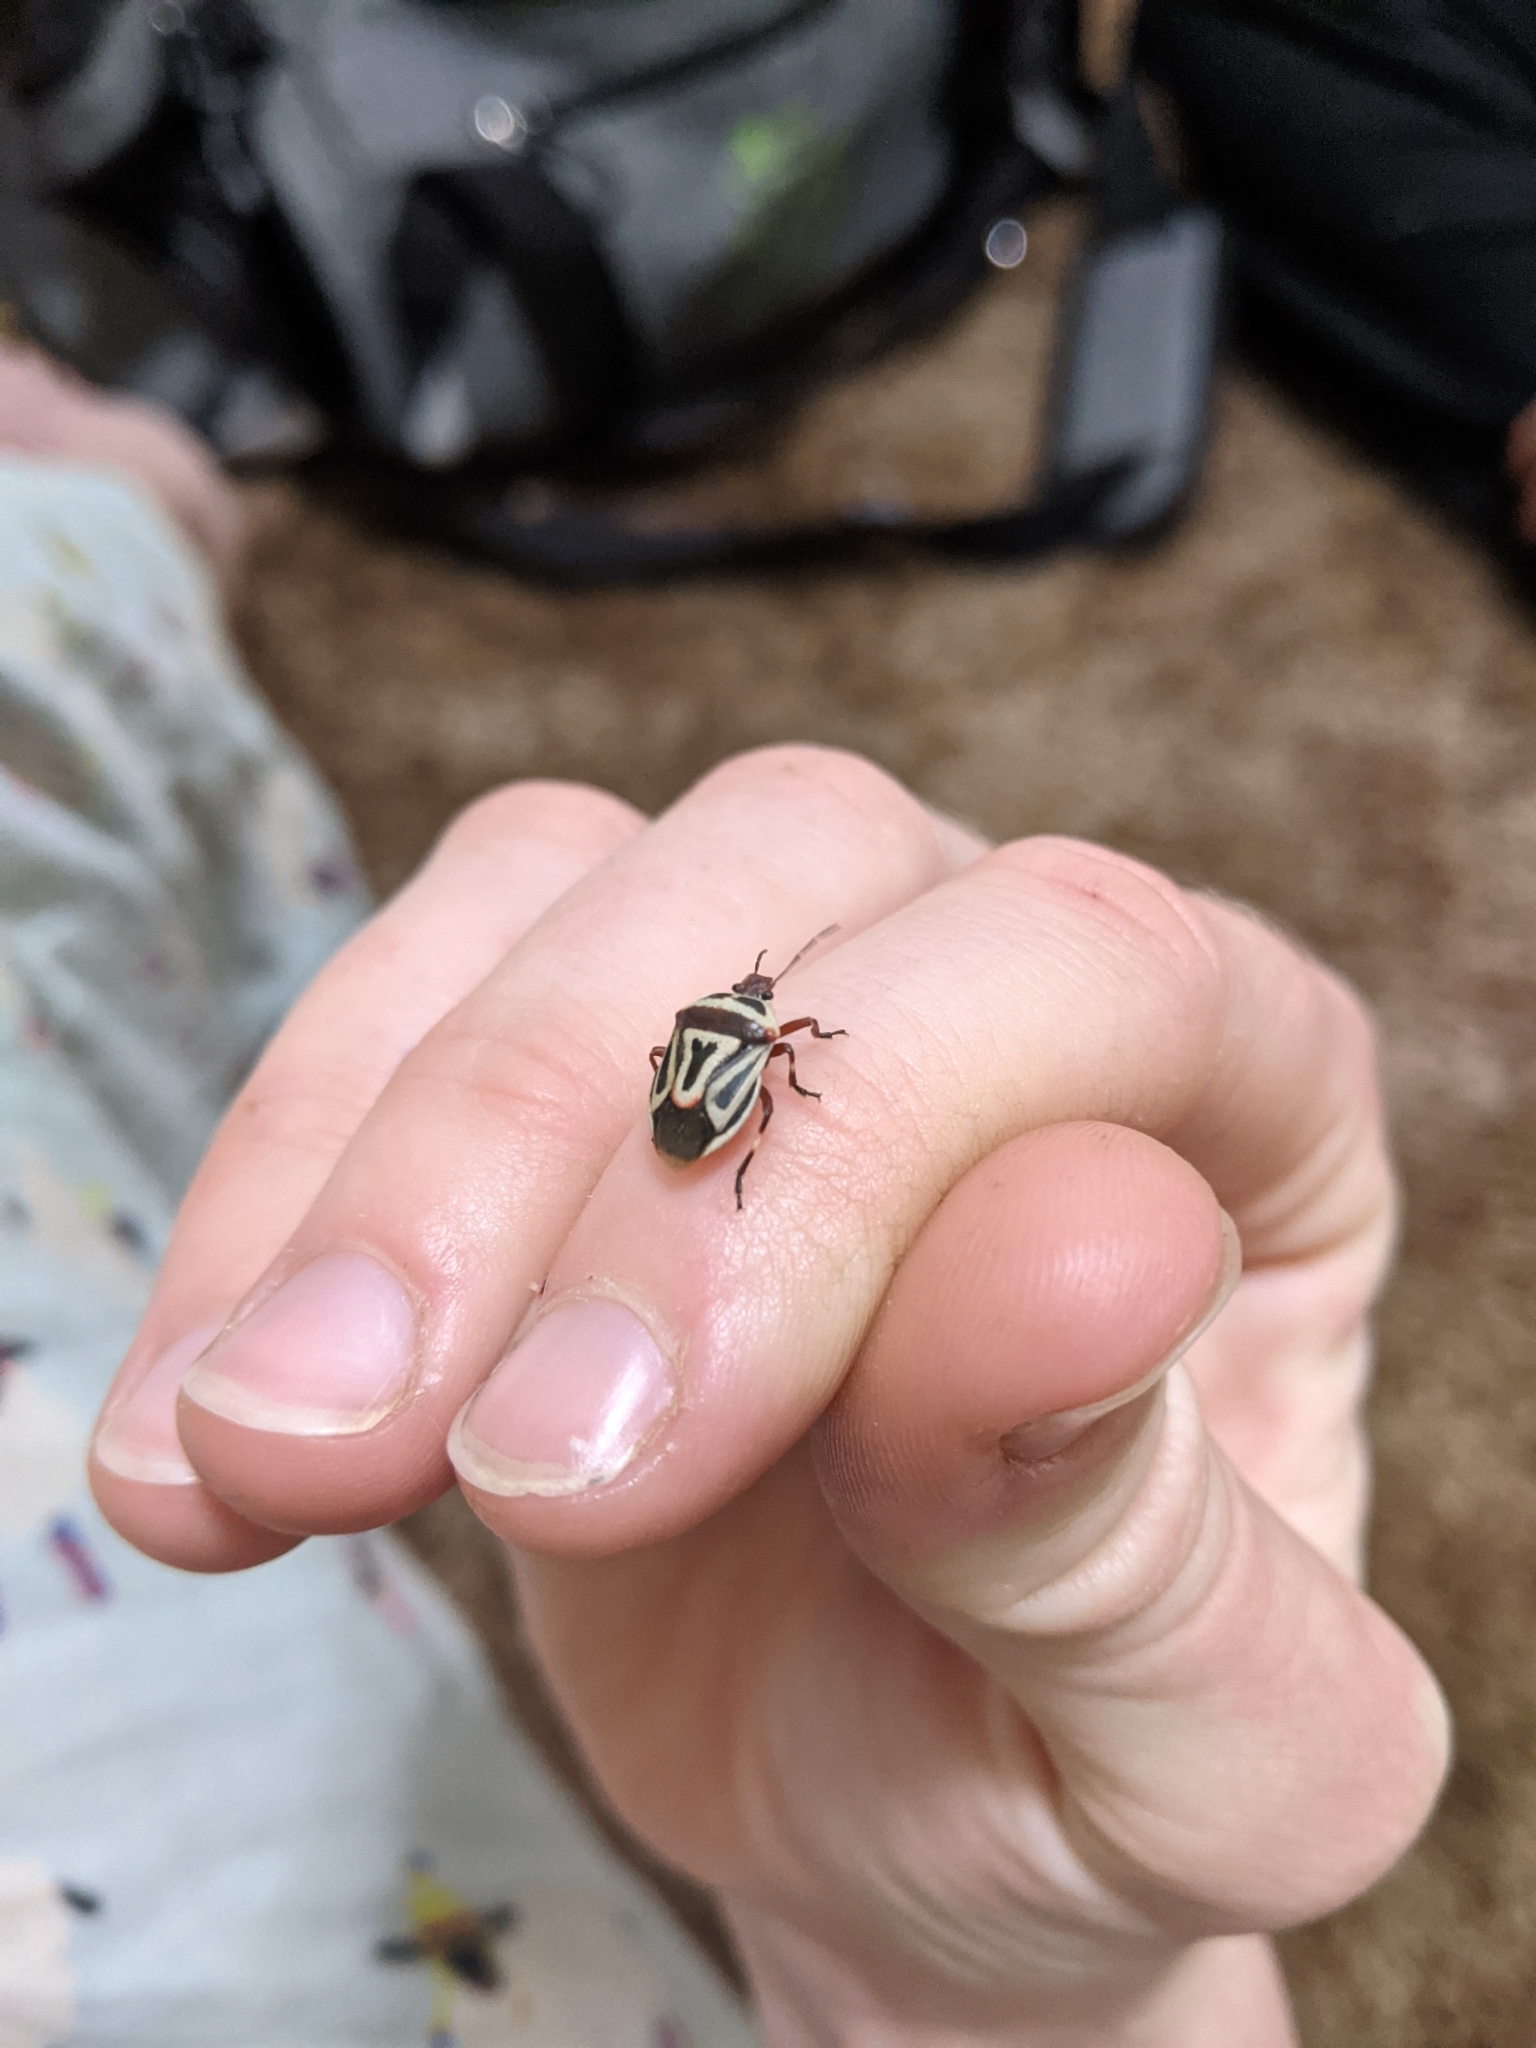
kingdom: Animalia
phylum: Arthropoda
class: Insecta
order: Hemiptera
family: Pentatomidae
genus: Perillus
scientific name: Perillus bioculatus
